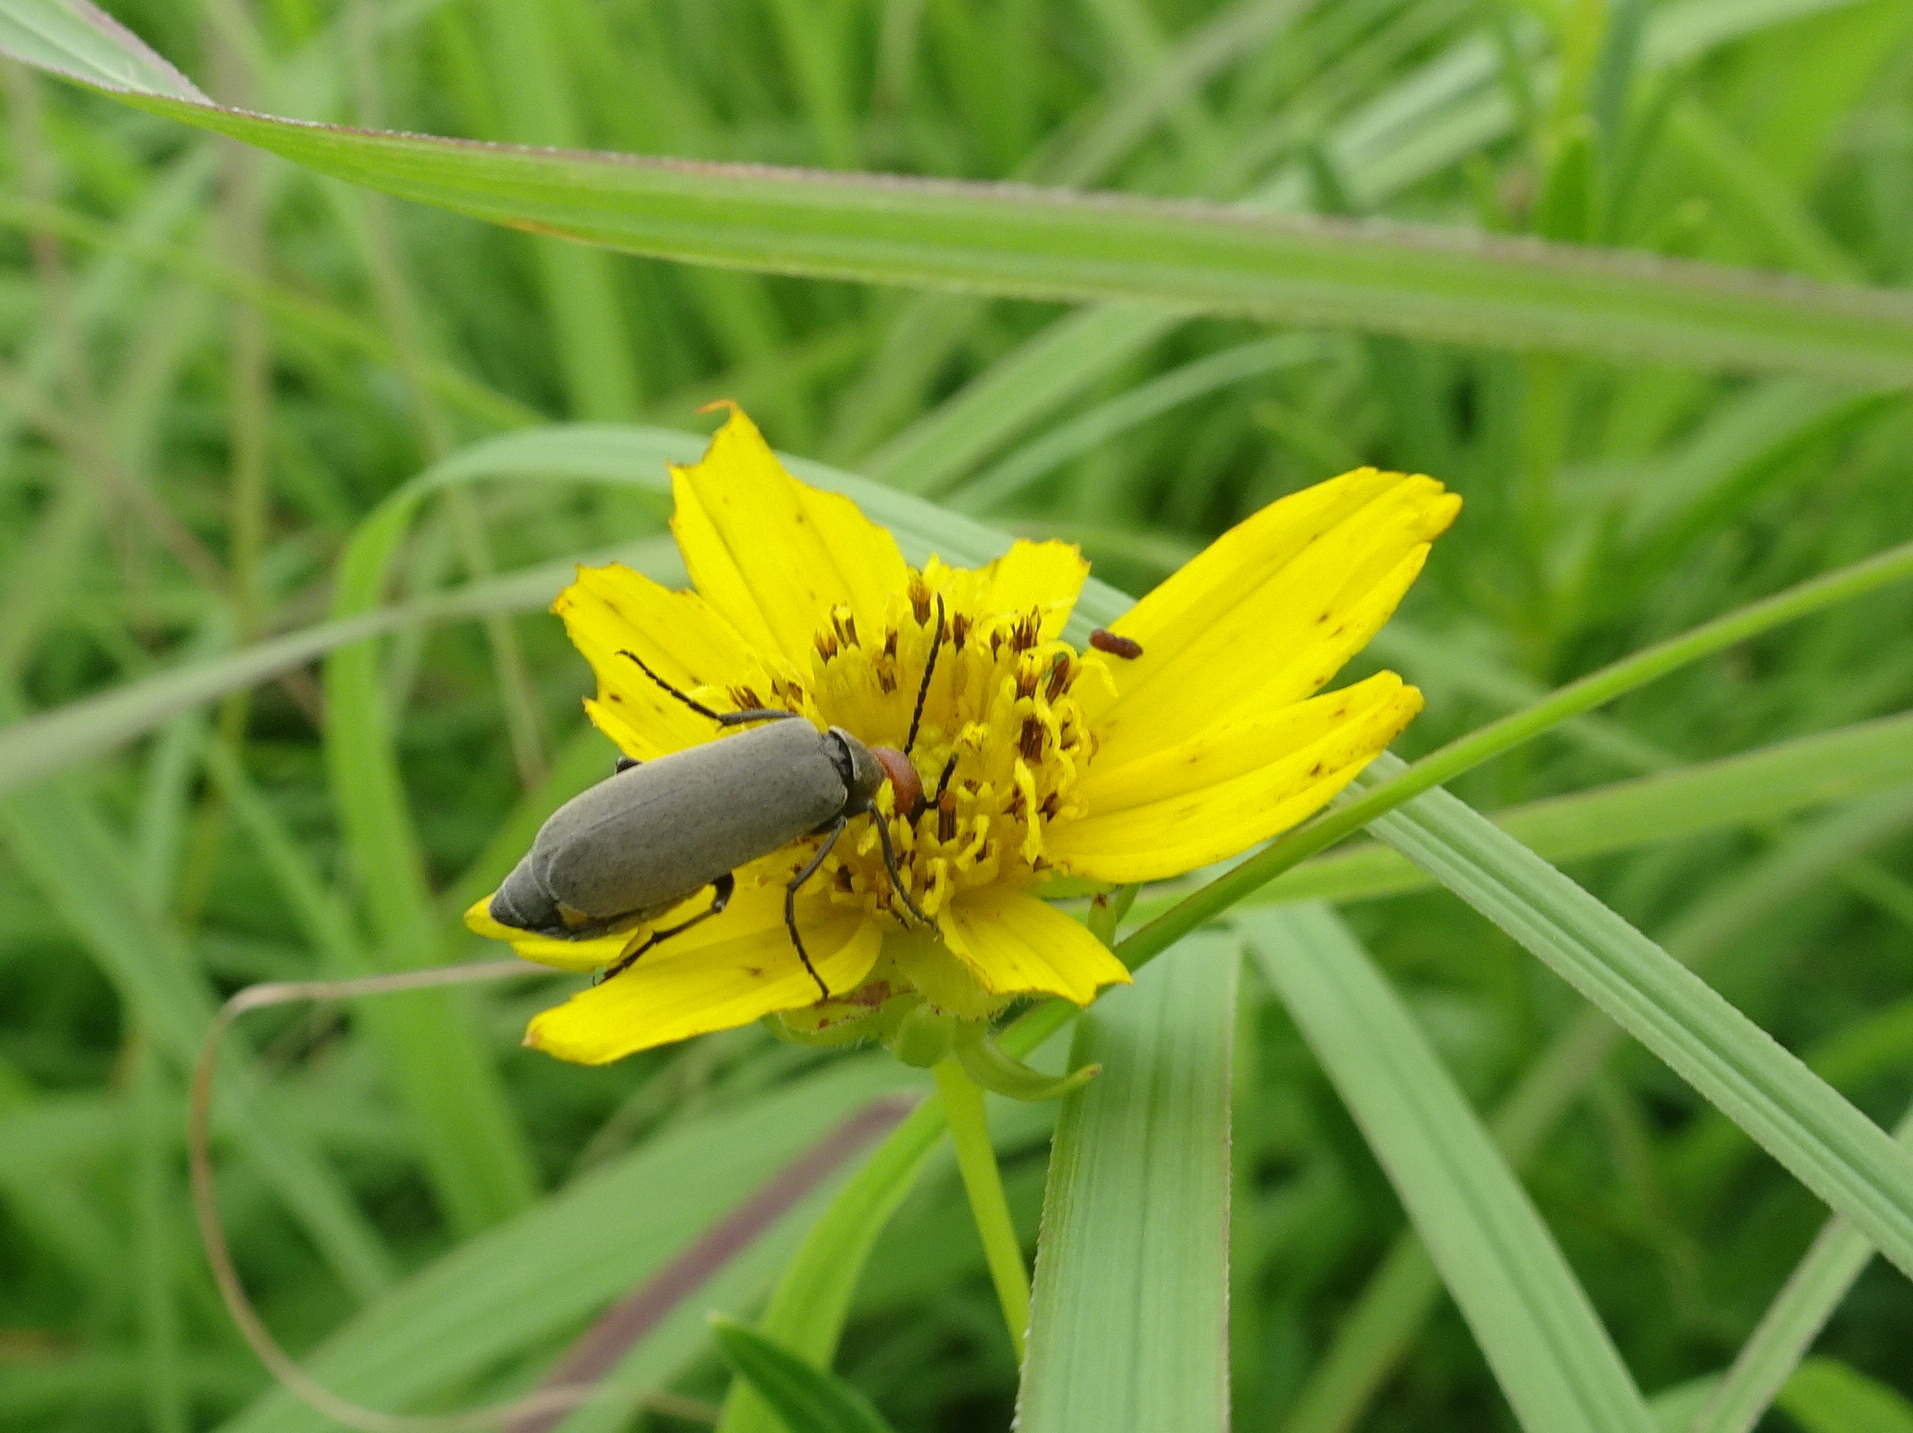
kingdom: Animalia
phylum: Arthropoda
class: Insecta
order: Coleoptera
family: Meloidae
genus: Epicauta
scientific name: Epicauta atrata
